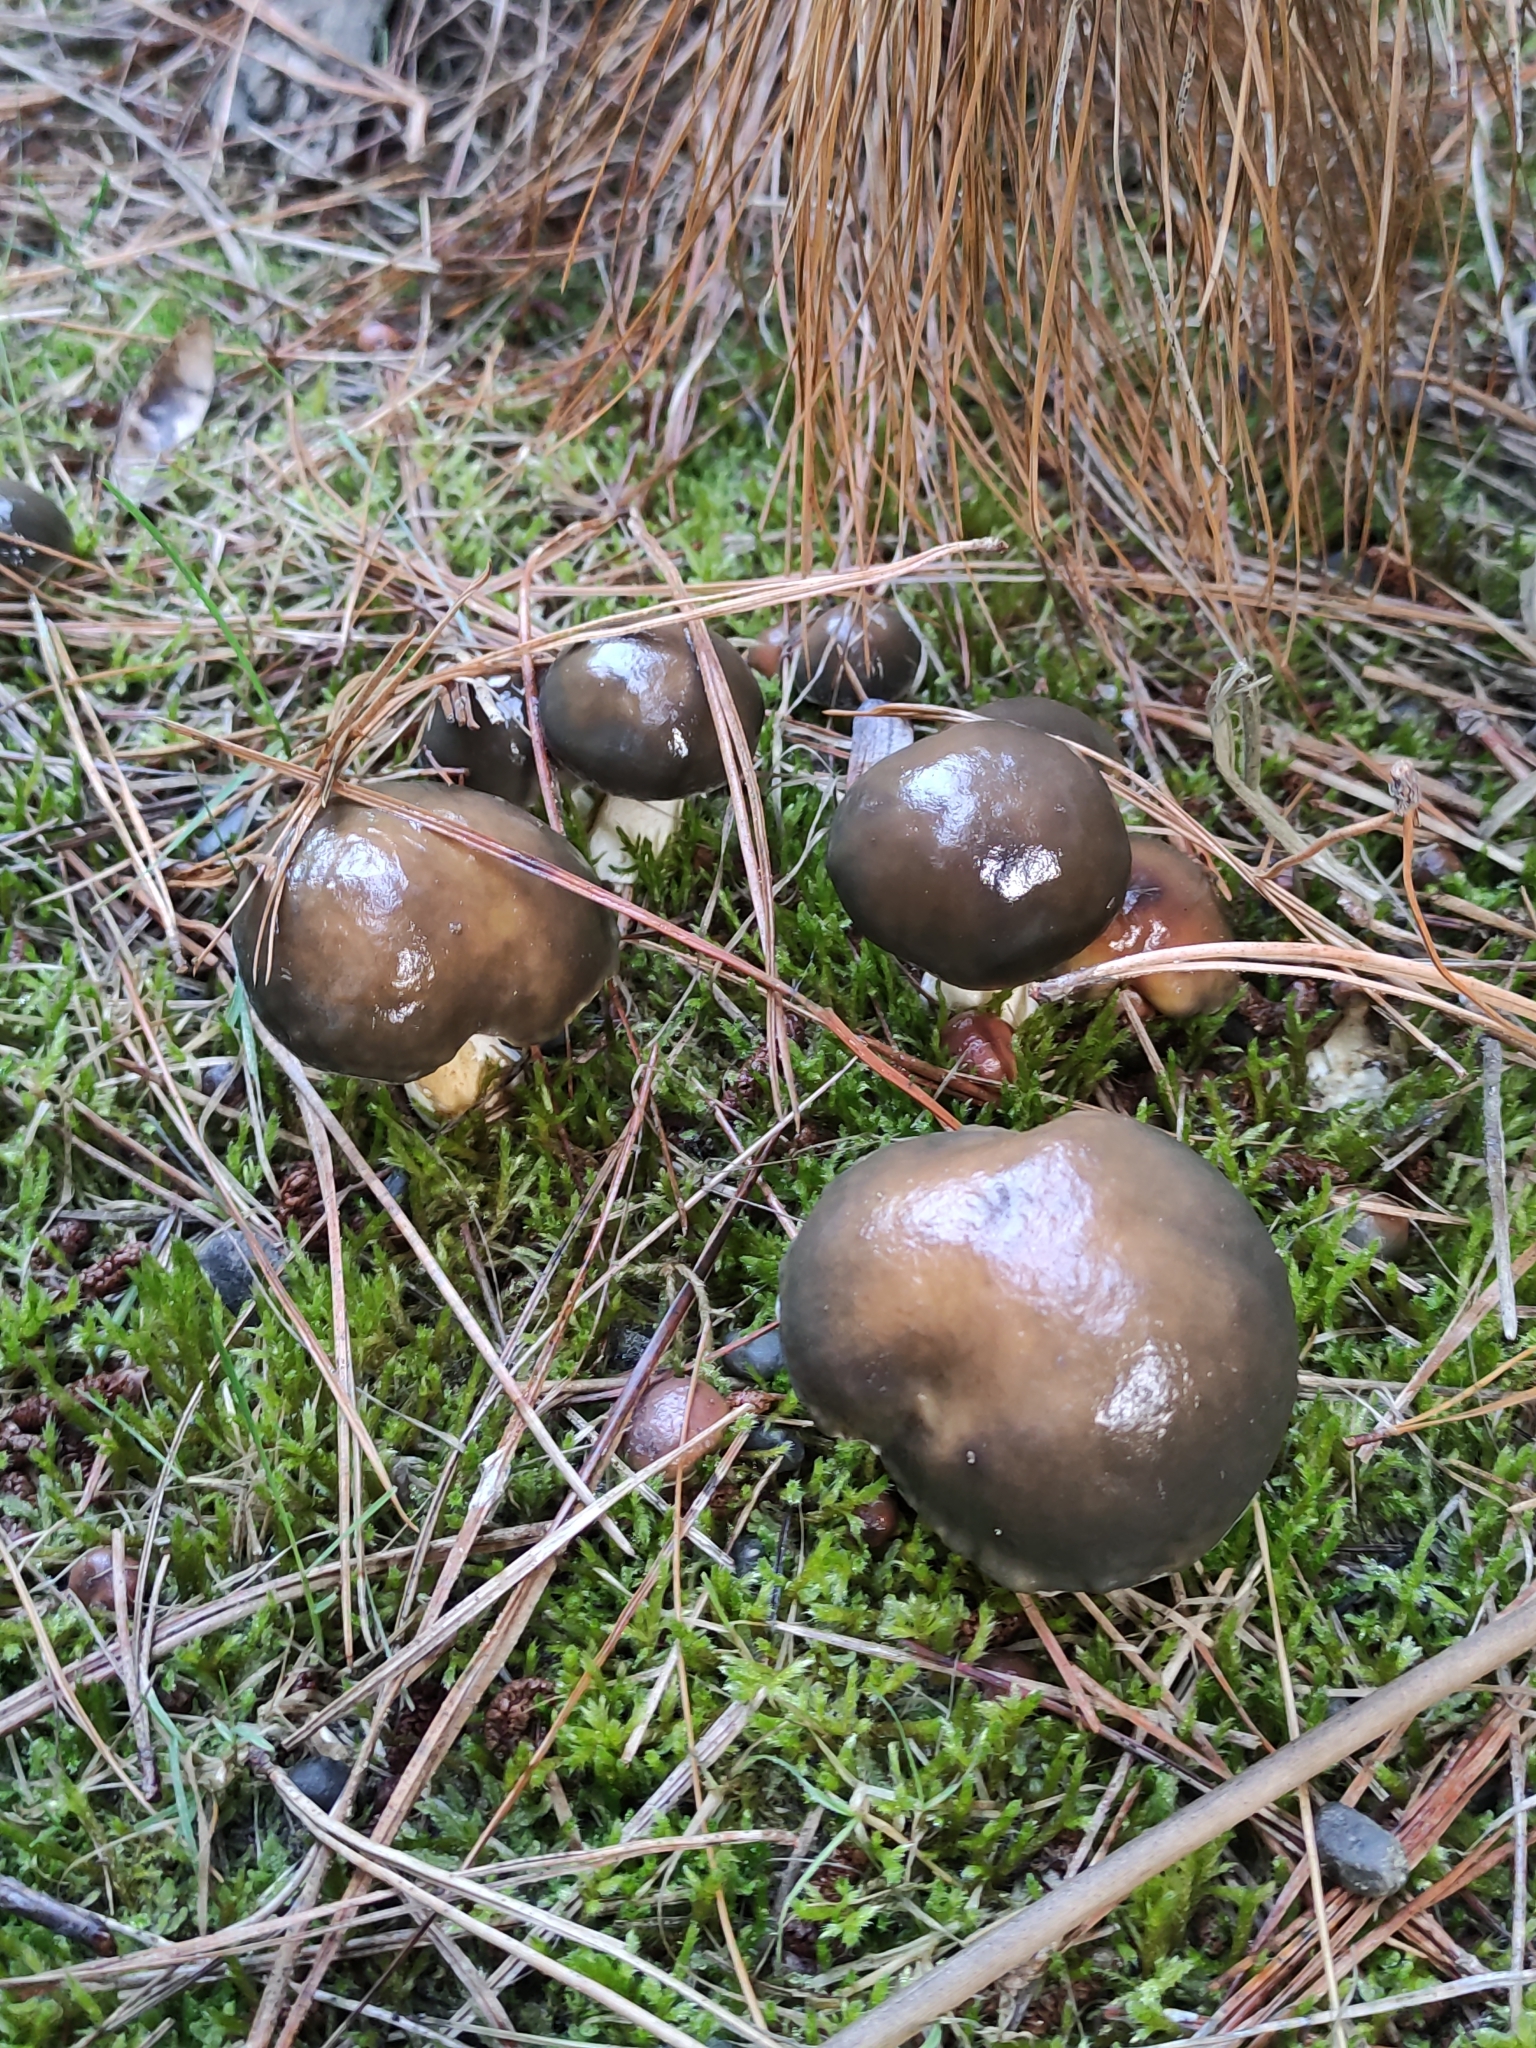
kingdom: Fungi
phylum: Basidiomycota
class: Agaricomycetes
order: Boletales
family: Suillaceae
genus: Suillus
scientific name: Suillus pungens
